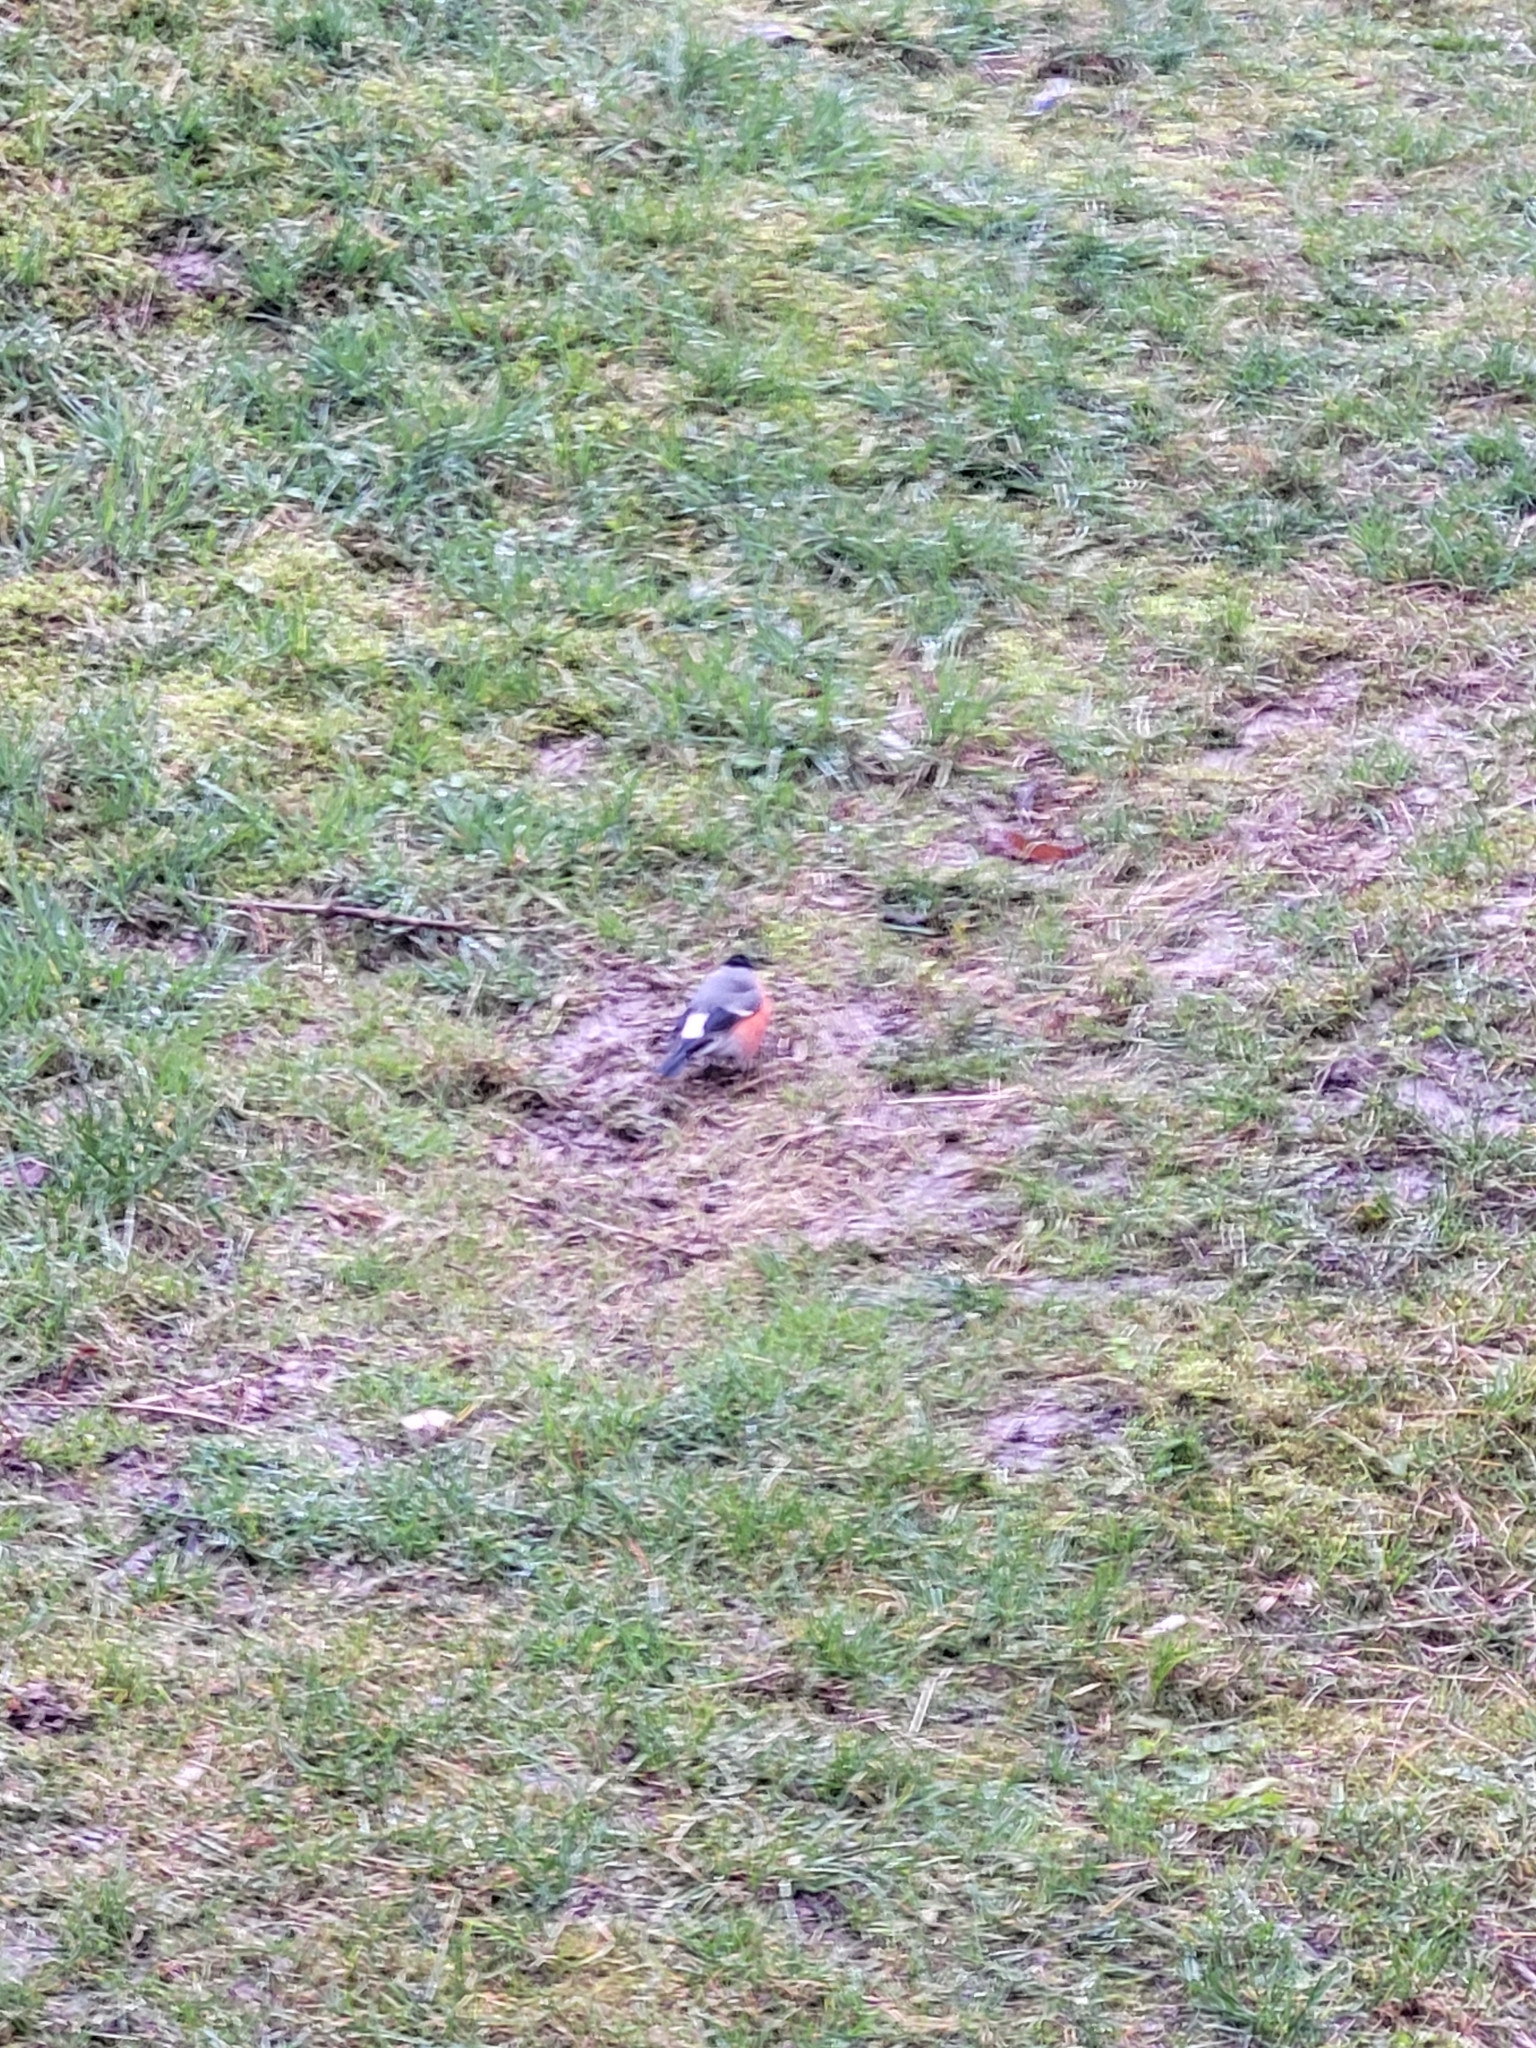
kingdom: Animalia
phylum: Chordata
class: Aves
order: Passeriformes
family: Fringillidae
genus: Pyrrhula
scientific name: Pyrrhula pyrrhula
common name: Eurasian bullfinch
